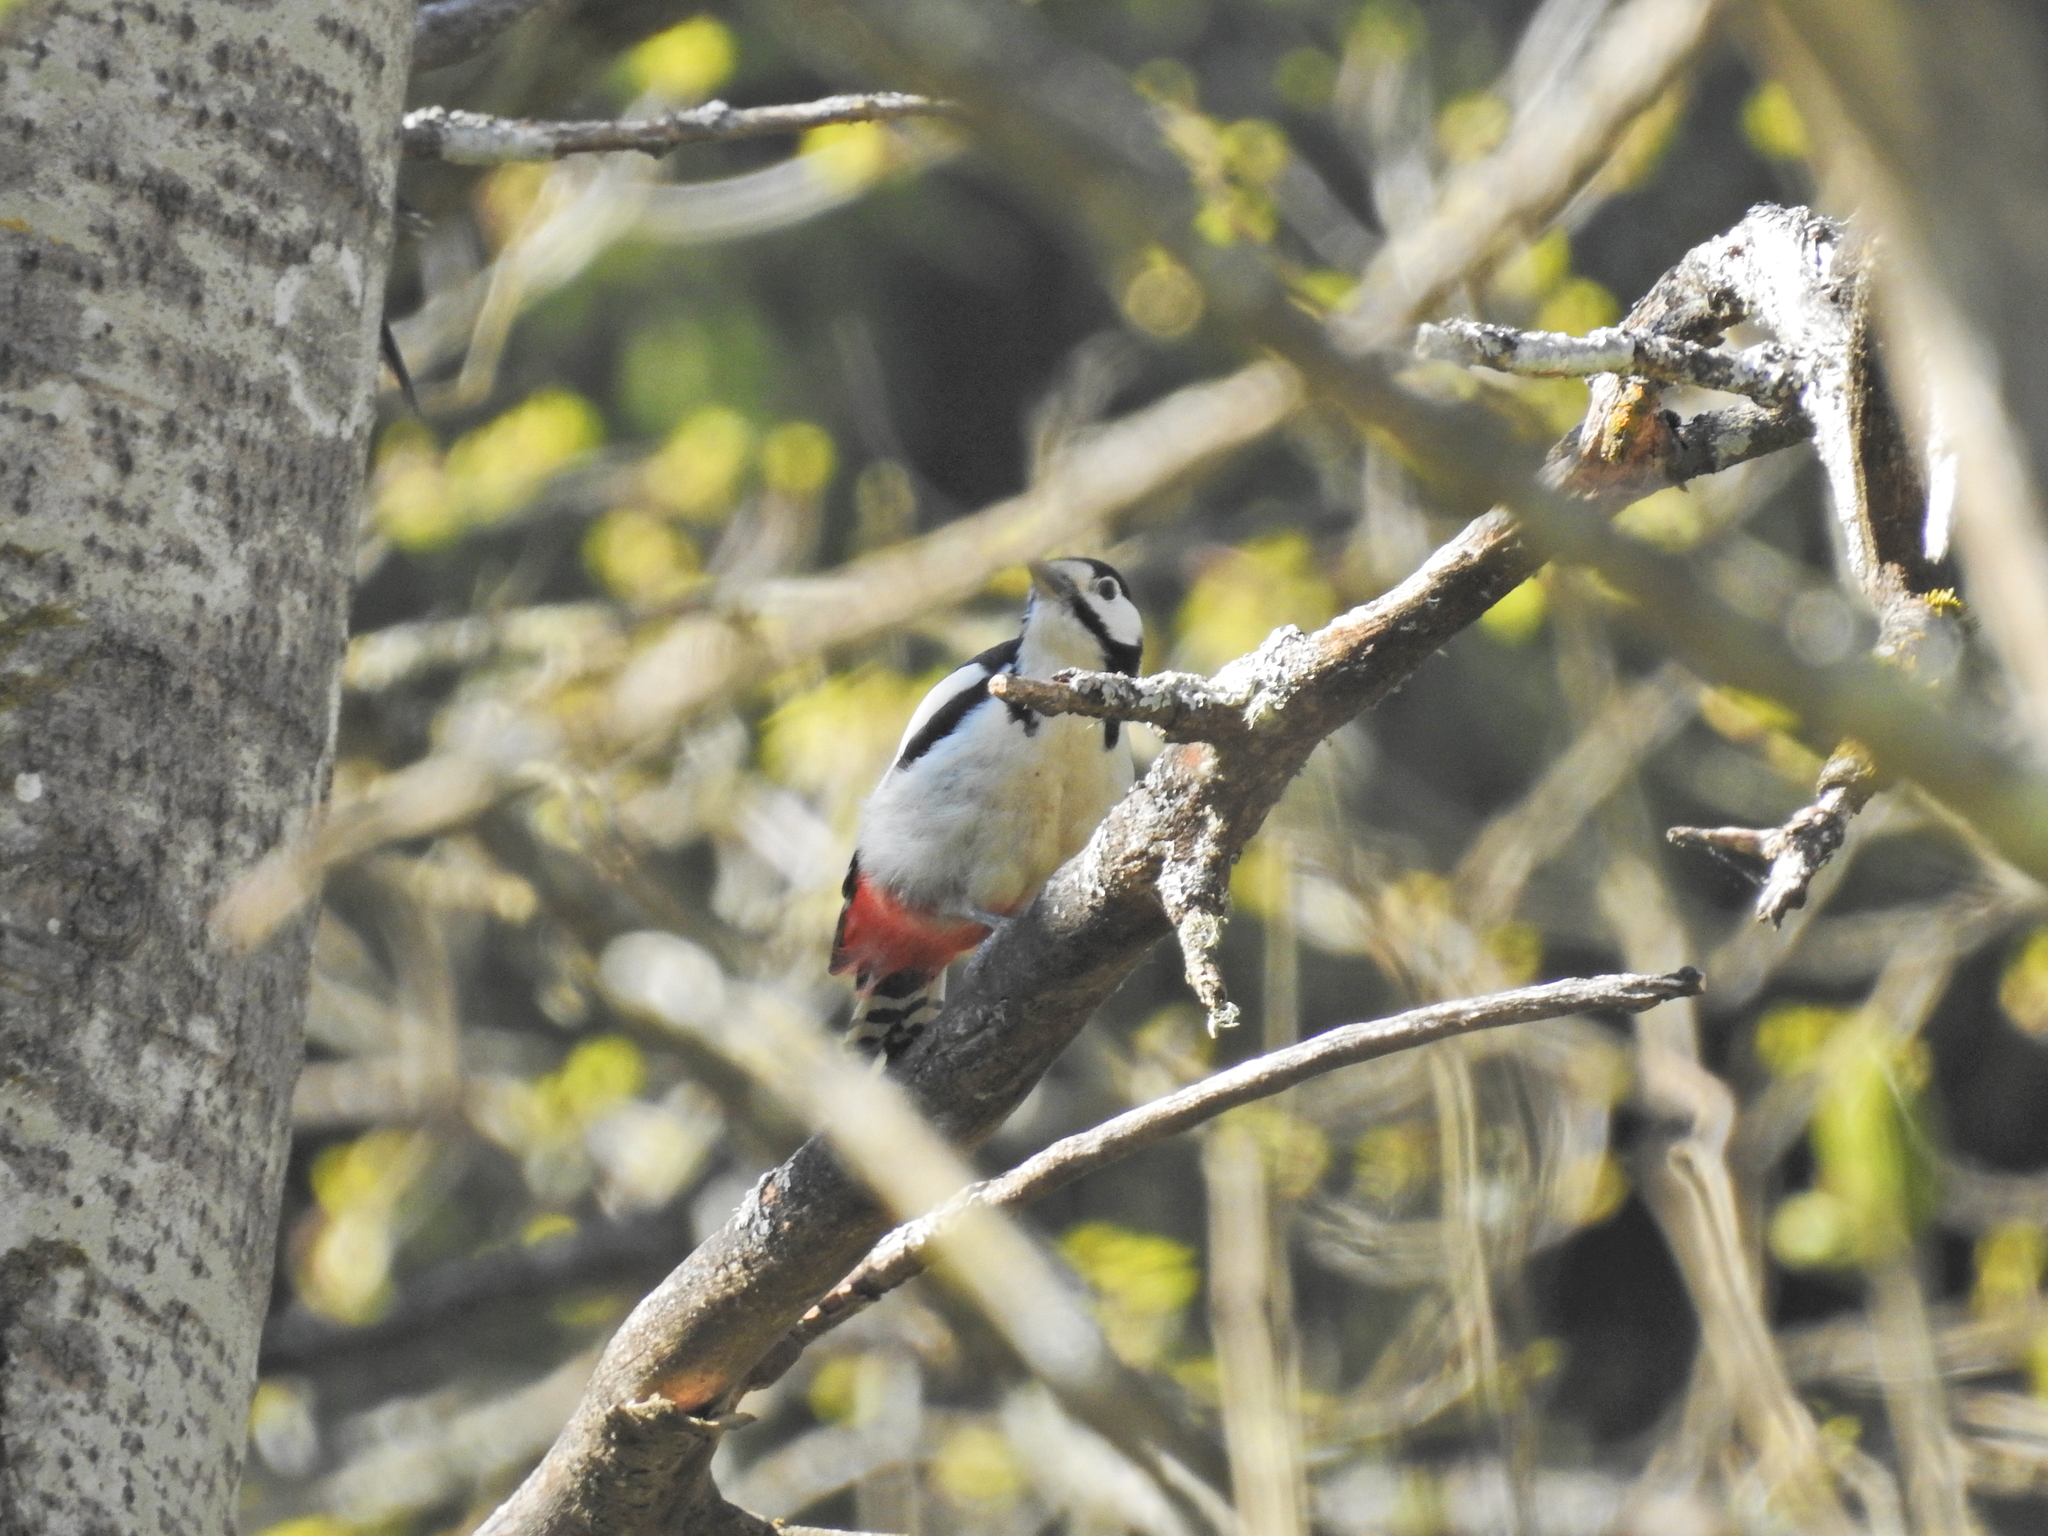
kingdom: Animalia
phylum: Chordata
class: Aves
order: Piciformes
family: Picidae
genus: Dendrocopos
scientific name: Dendrocopos major
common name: Great spotted woodpecker
